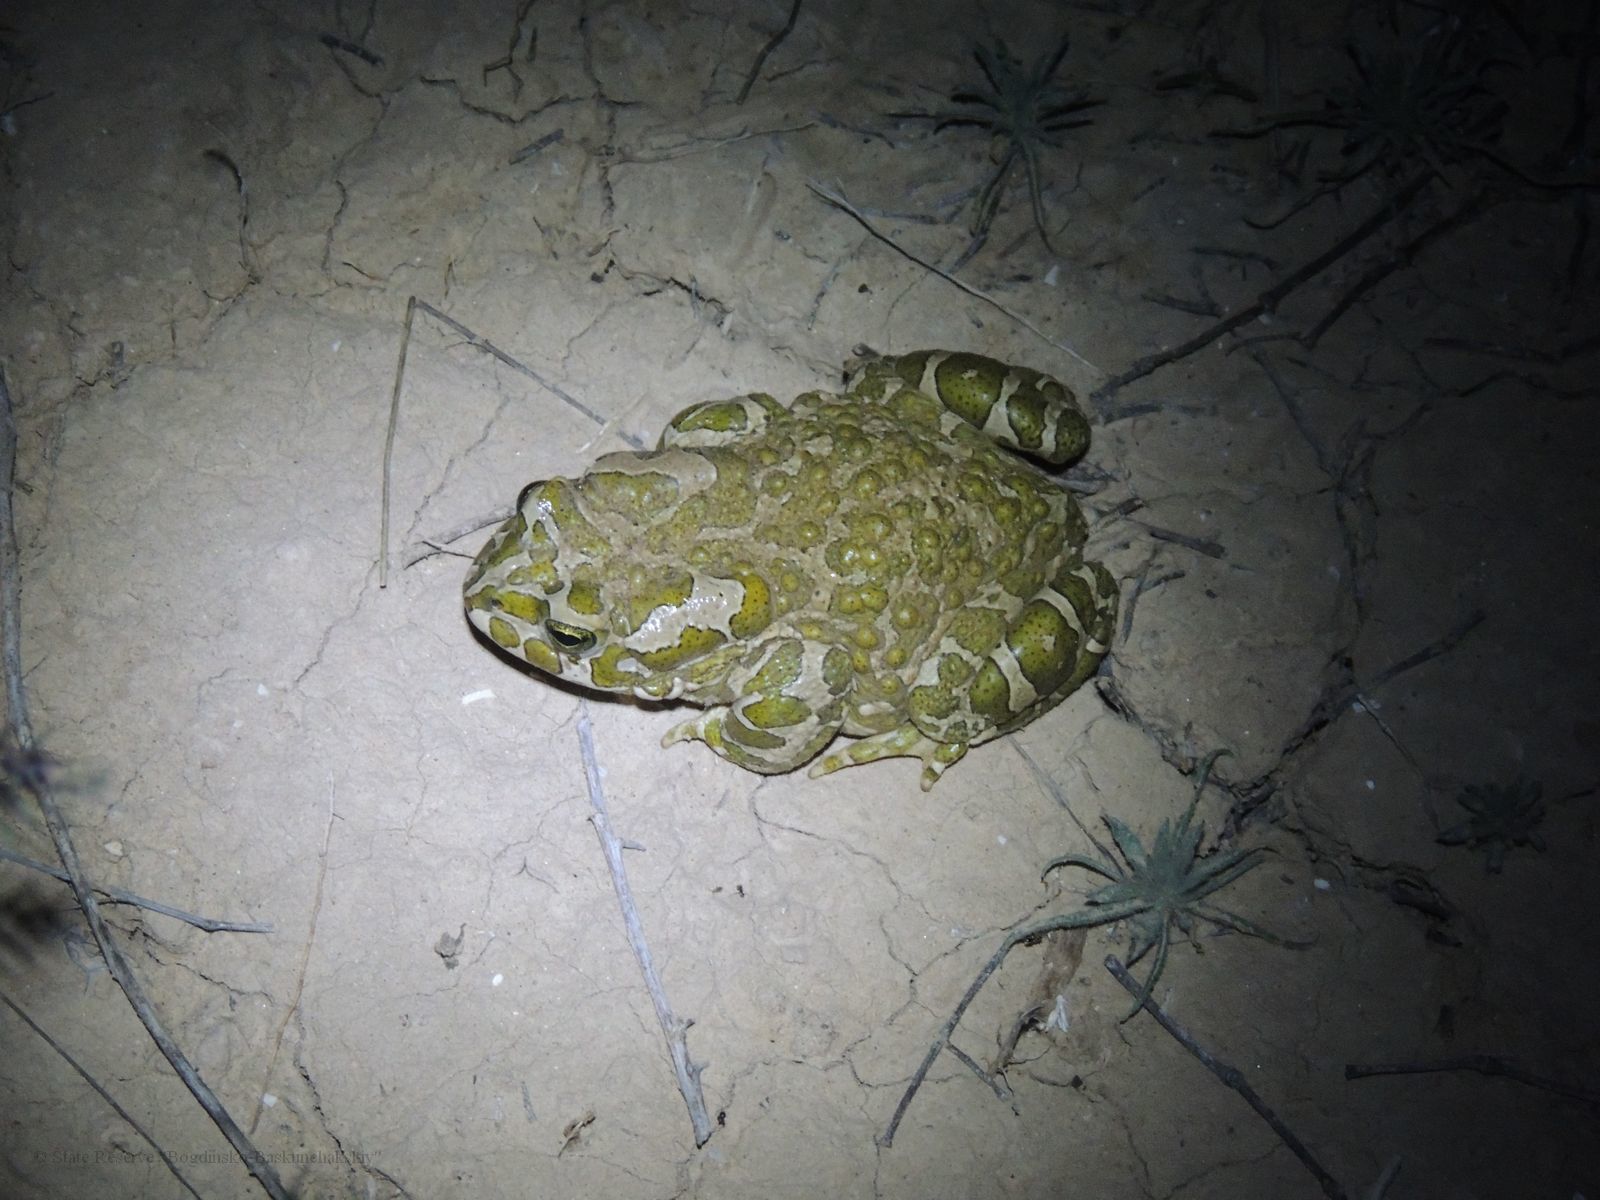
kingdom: Animalia
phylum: Chordata
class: Amphibia
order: Anura
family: Bufonidae
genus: Bufotes
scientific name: Bufotes viridis
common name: European green toad
